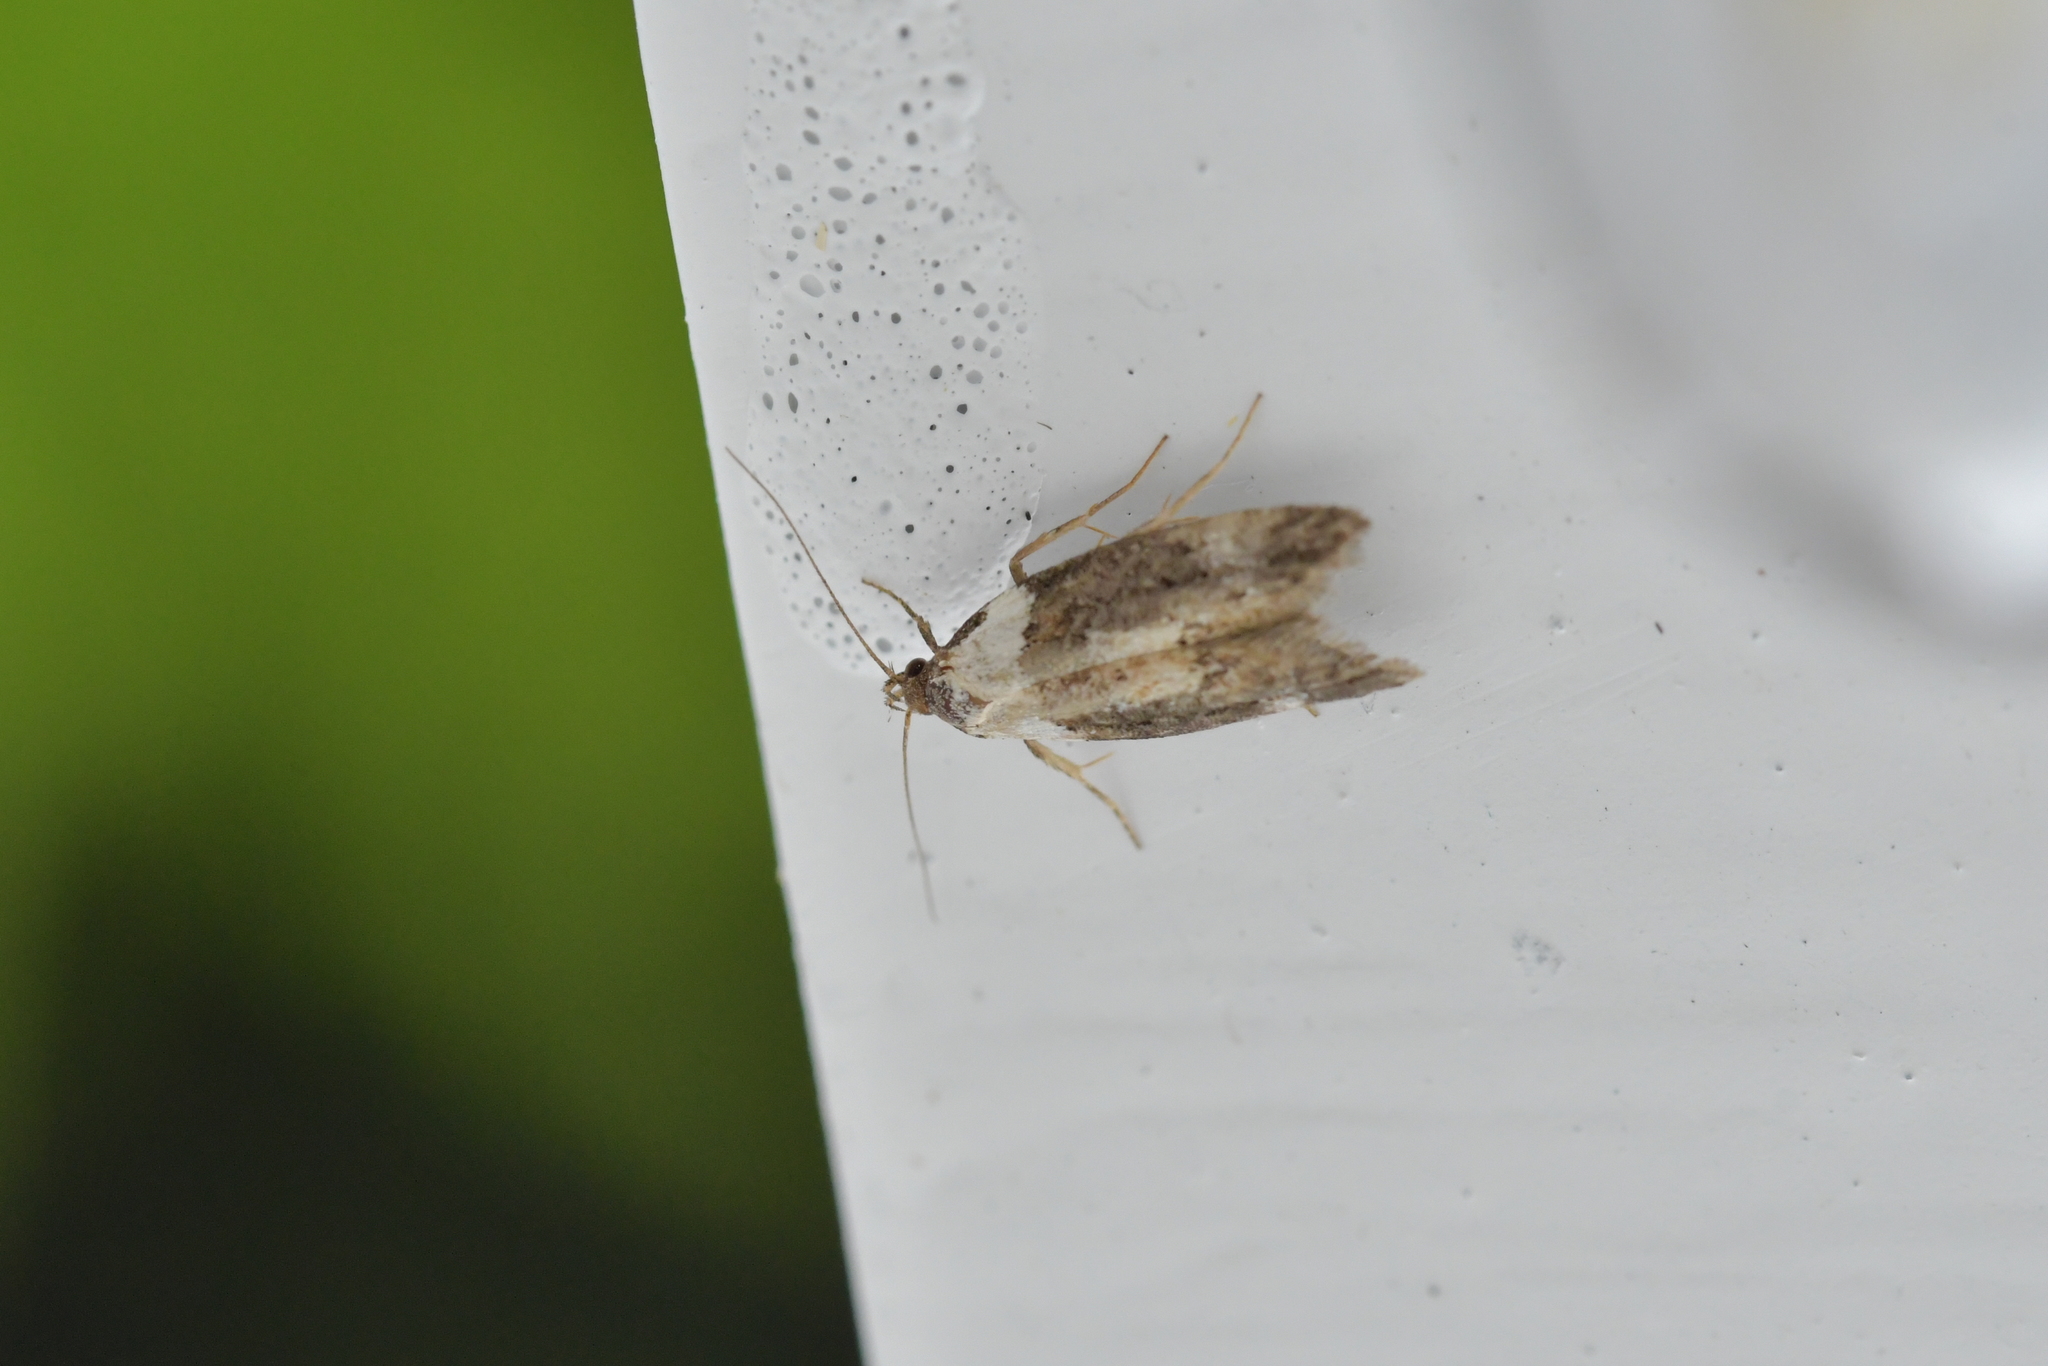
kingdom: Animalia
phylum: Arthropoda
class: Insecta
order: Lepidoptera
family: Oecophoridae
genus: Trachypepla
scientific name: Trachypepla conspicuella
